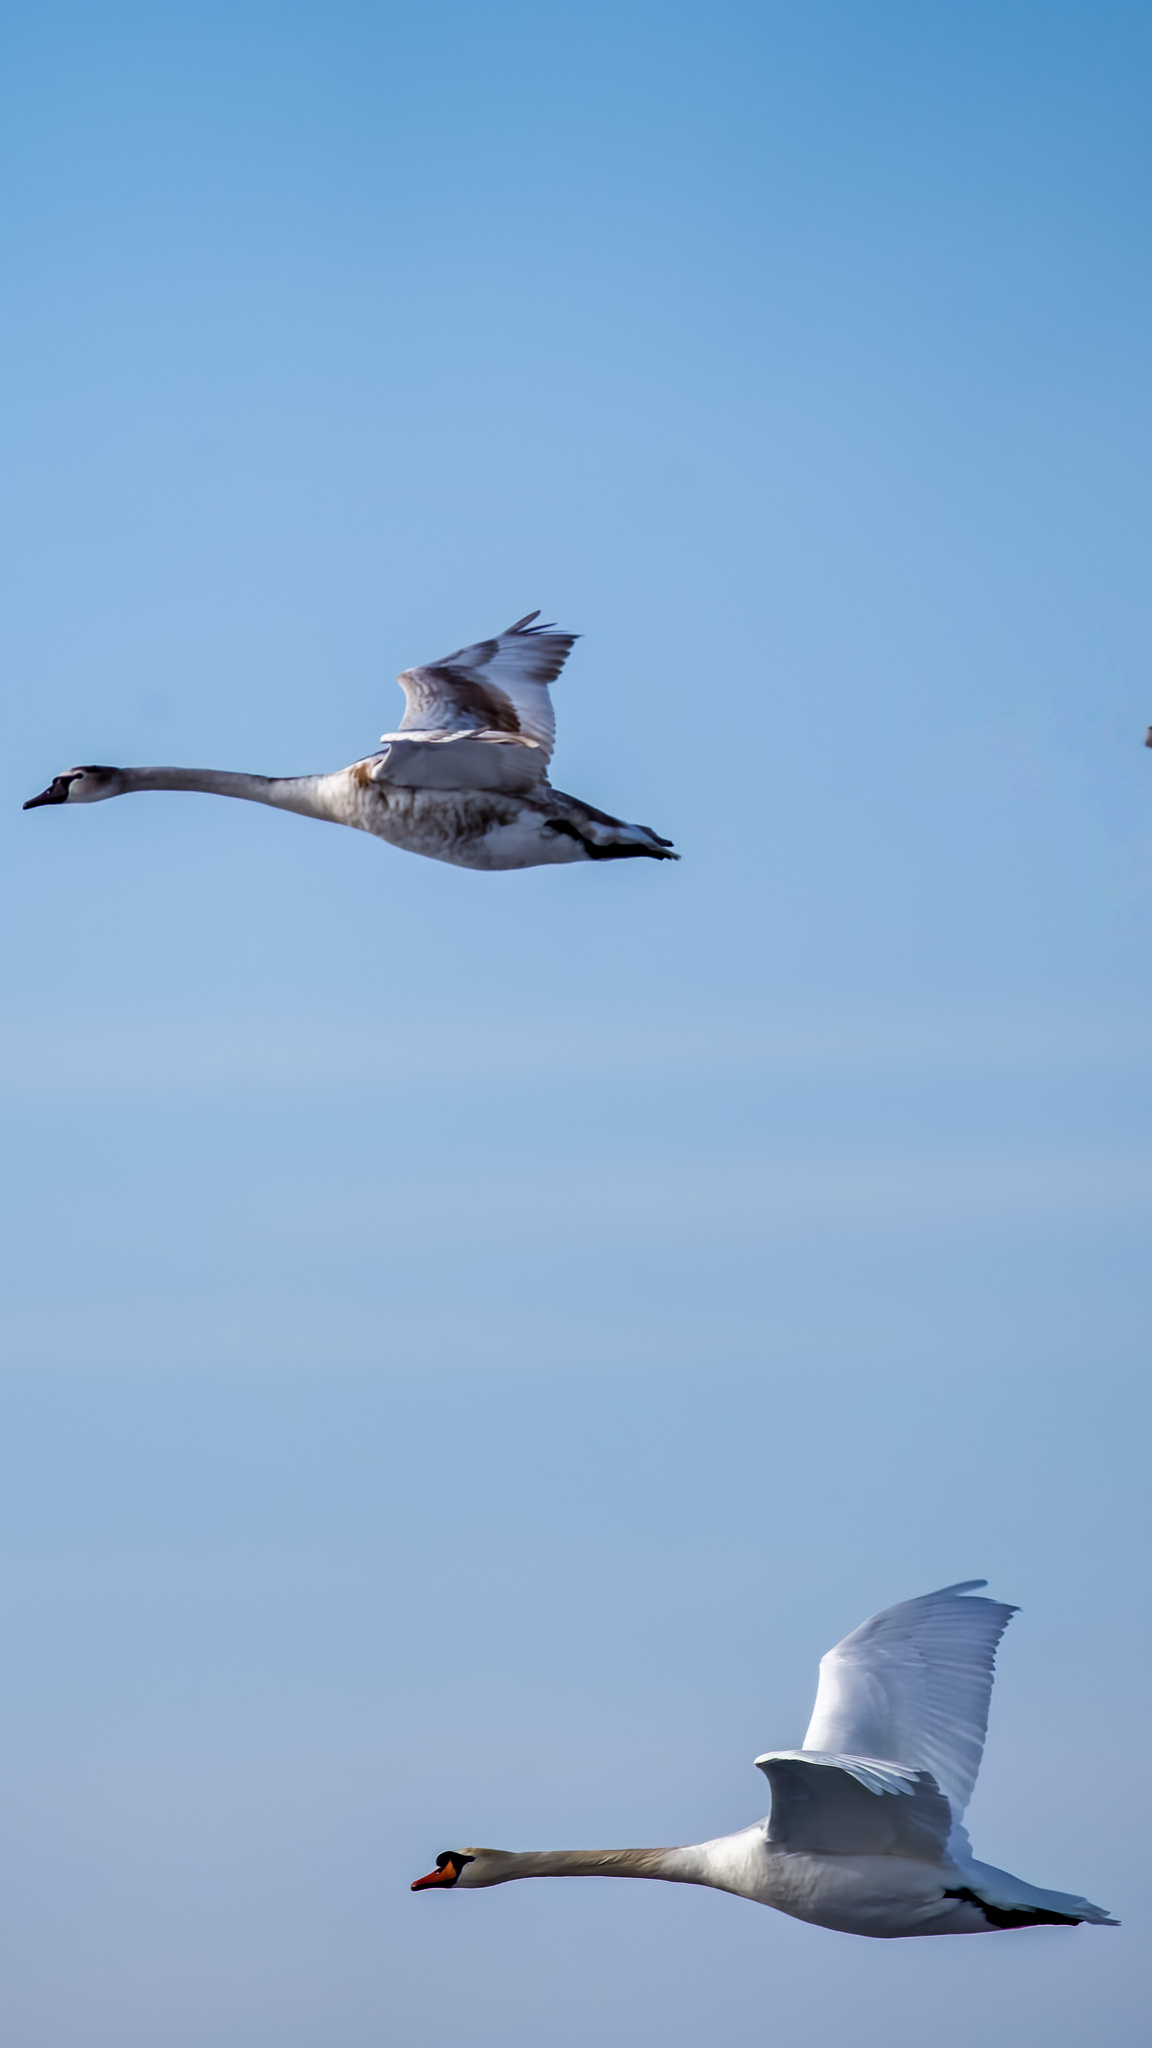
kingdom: Animalia
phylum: Chordata
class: Aves
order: Anseriformes
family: Anatidae
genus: Cygnus
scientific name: Cygnus olor
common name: Mute swan
